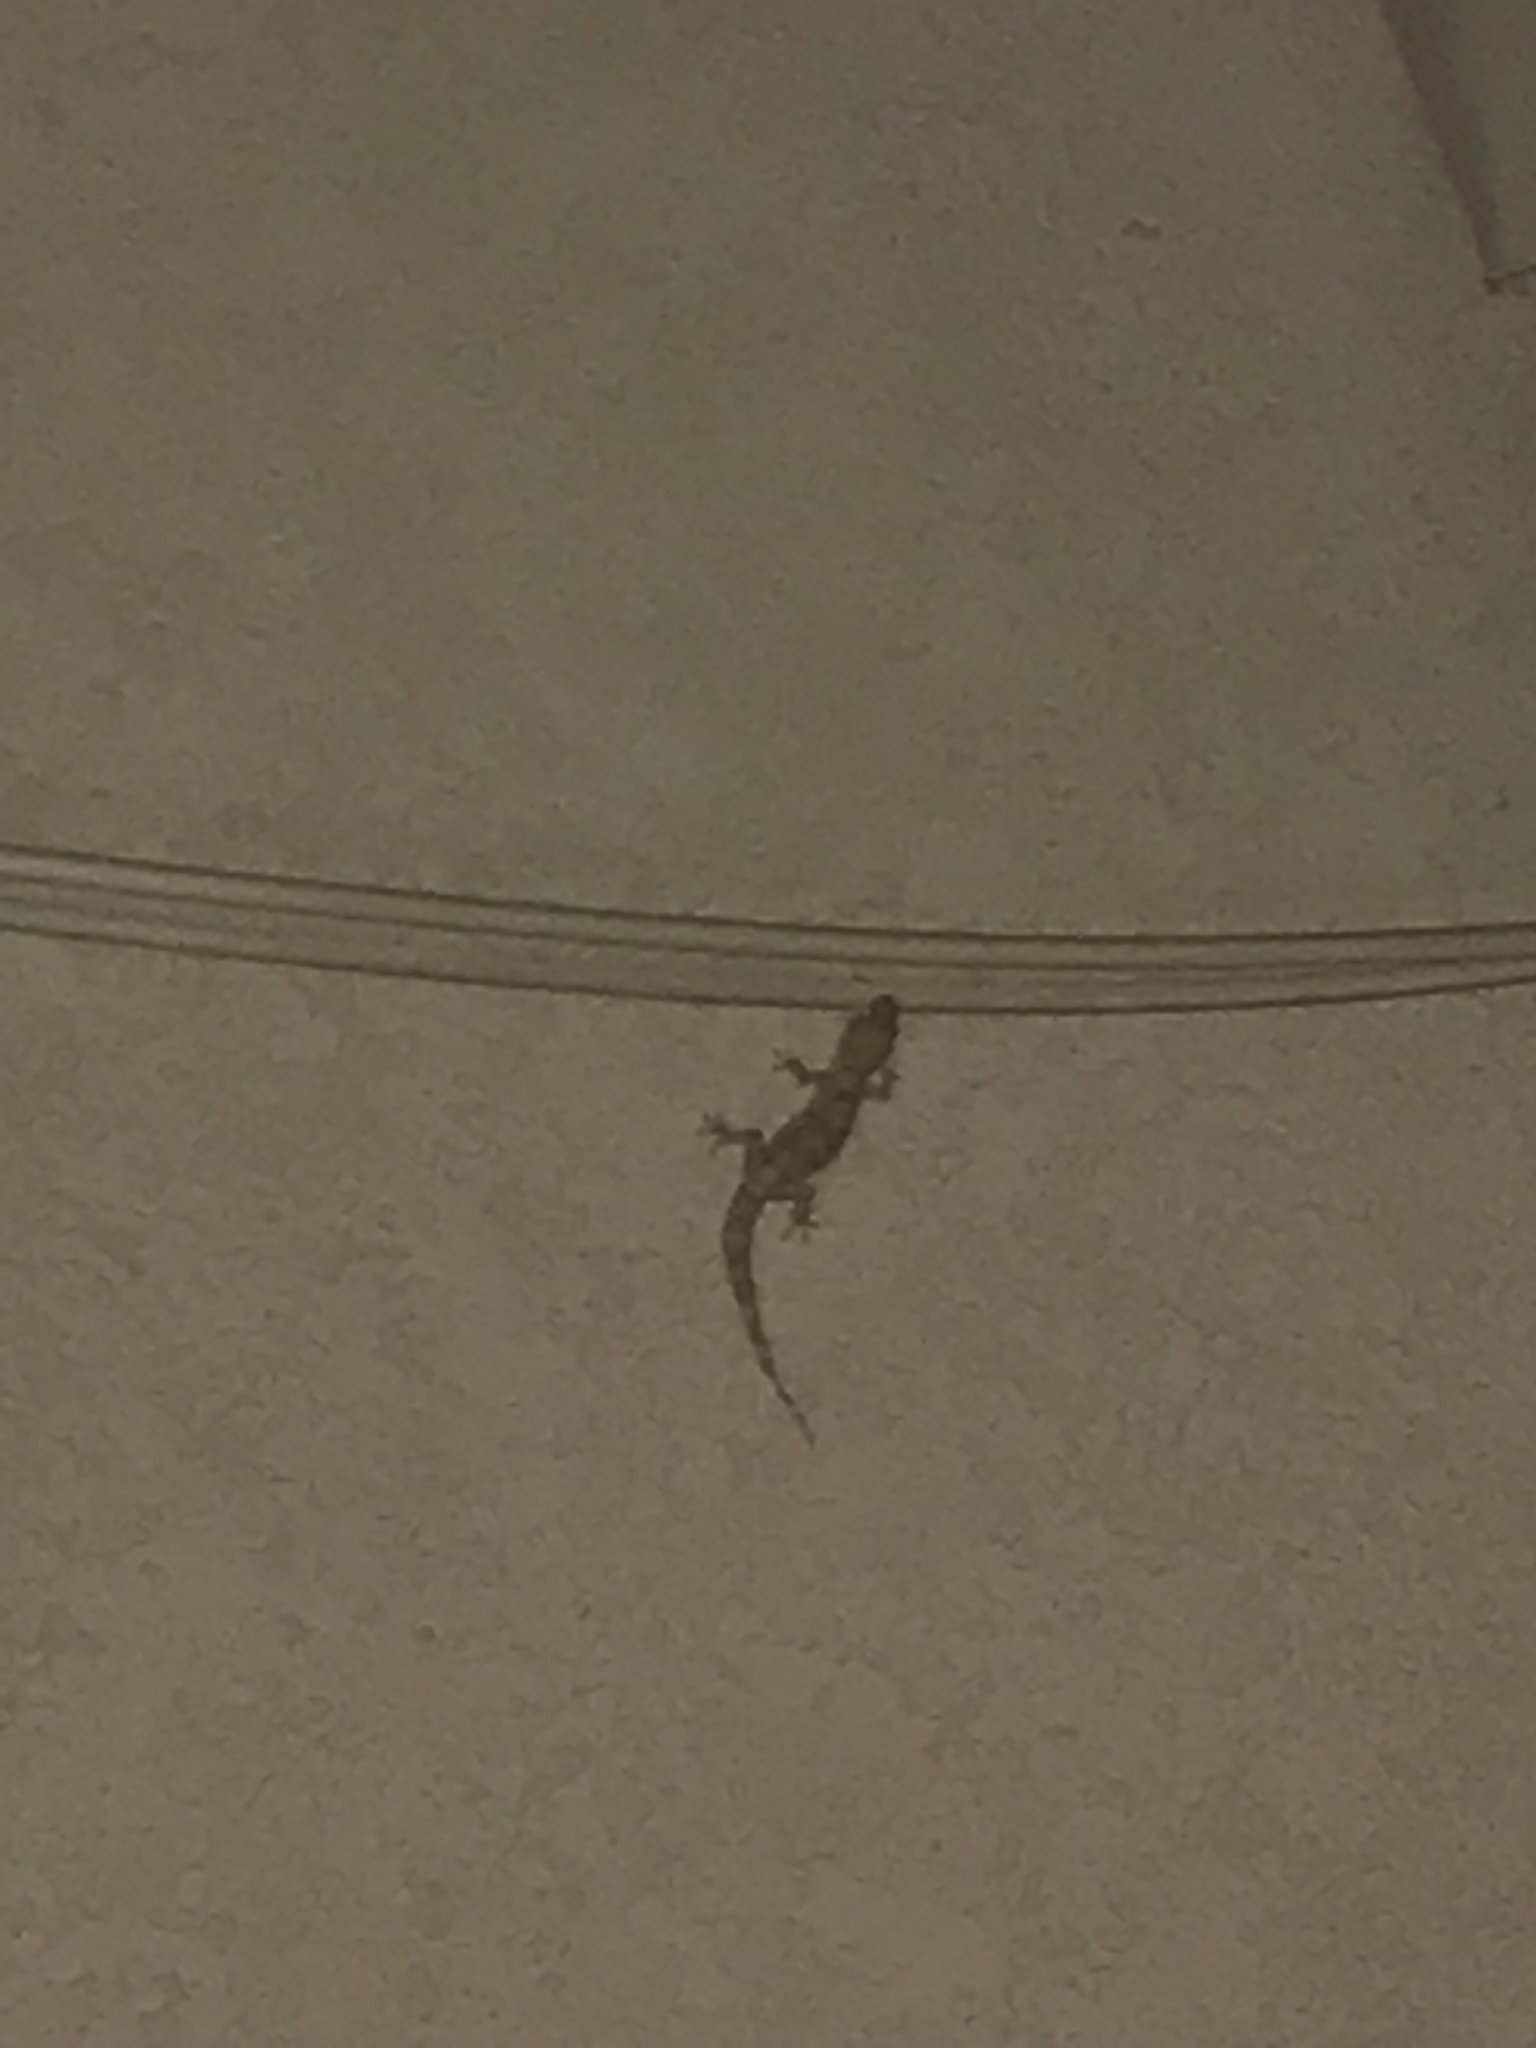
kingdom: Animalia
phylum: Chordata
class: Squamata
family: Gekkonidae
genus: Hemidactylus
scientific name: Hemidactylus turcicus
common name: Turkish gecko
